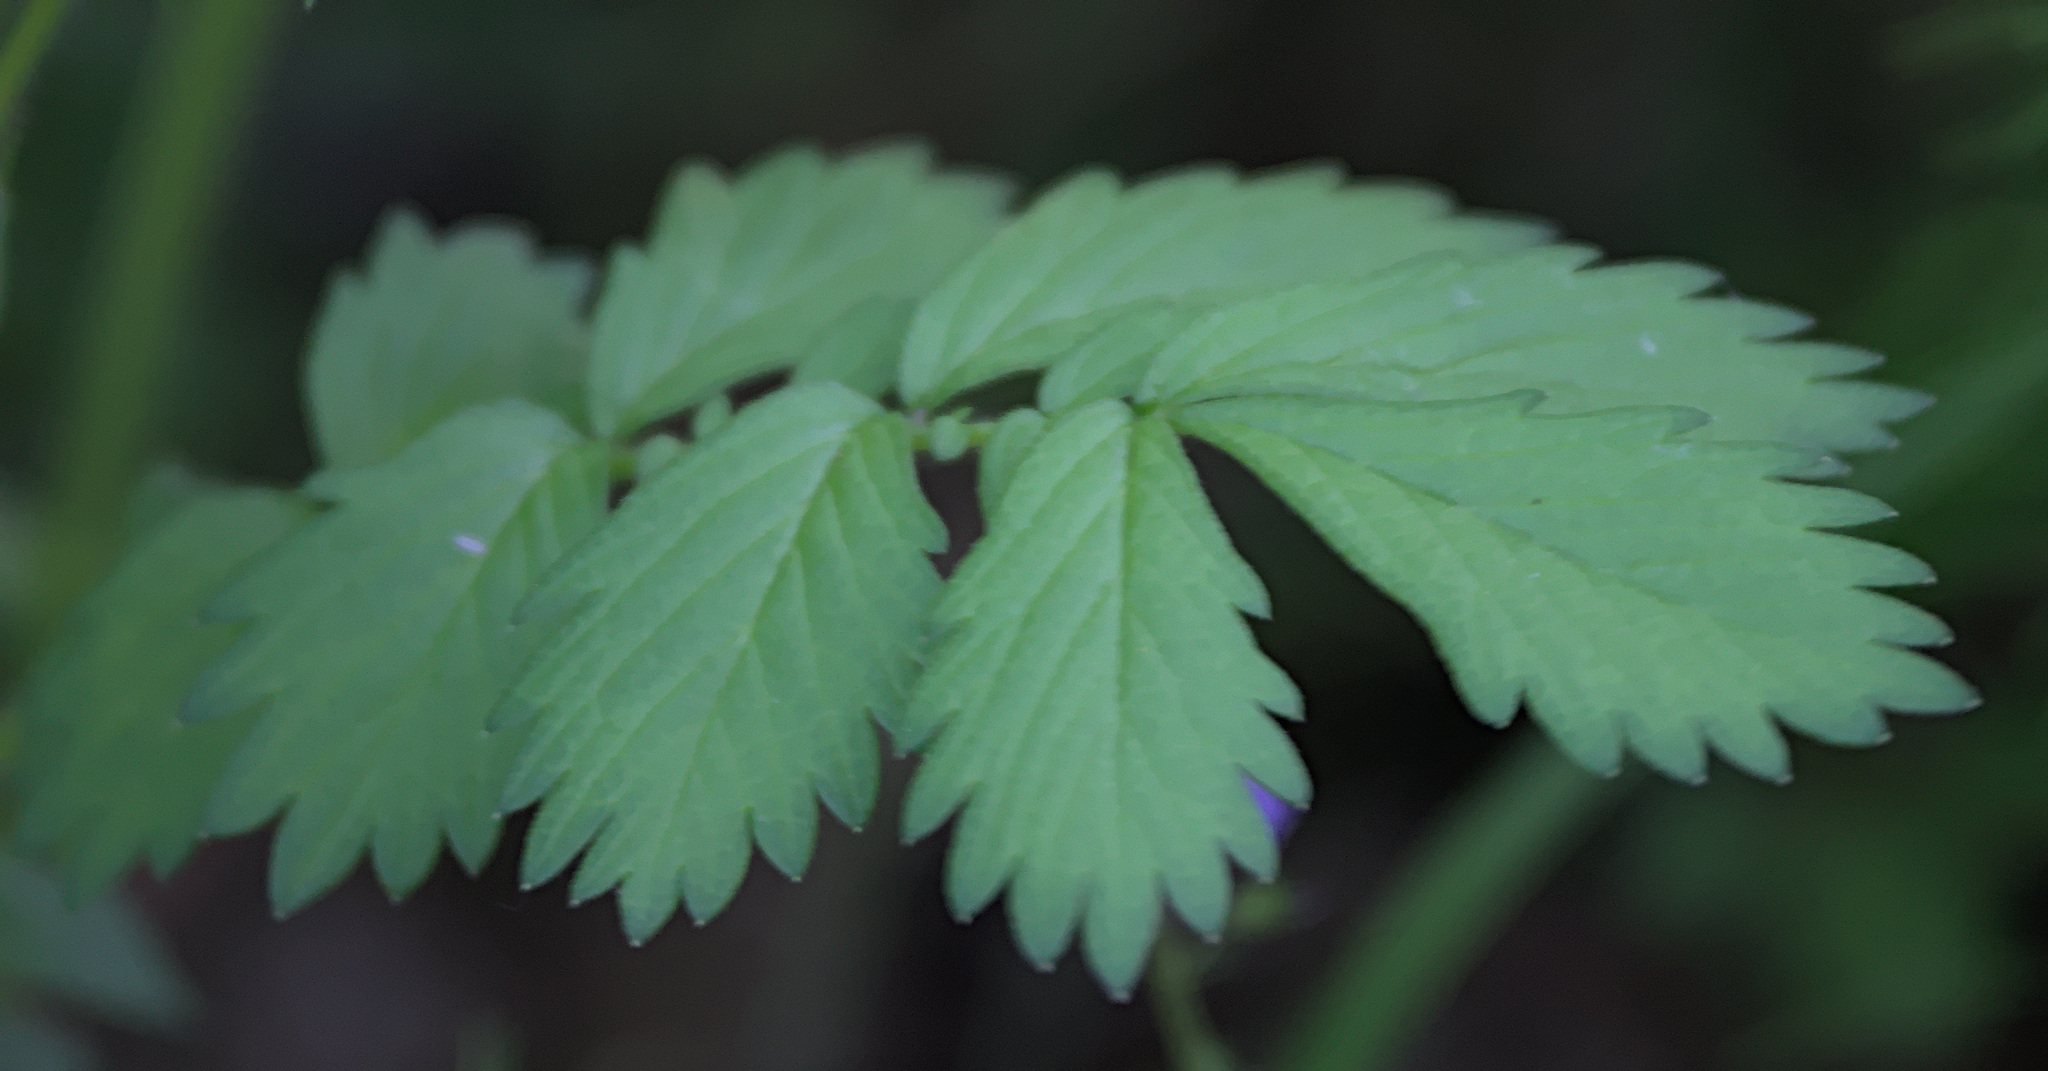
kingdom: Plantae
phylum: Tracheophyta
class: Magnoliopsida
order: Rosales
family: Rosaceae
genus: Agrimonia
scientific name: Agrimonia pilosa
